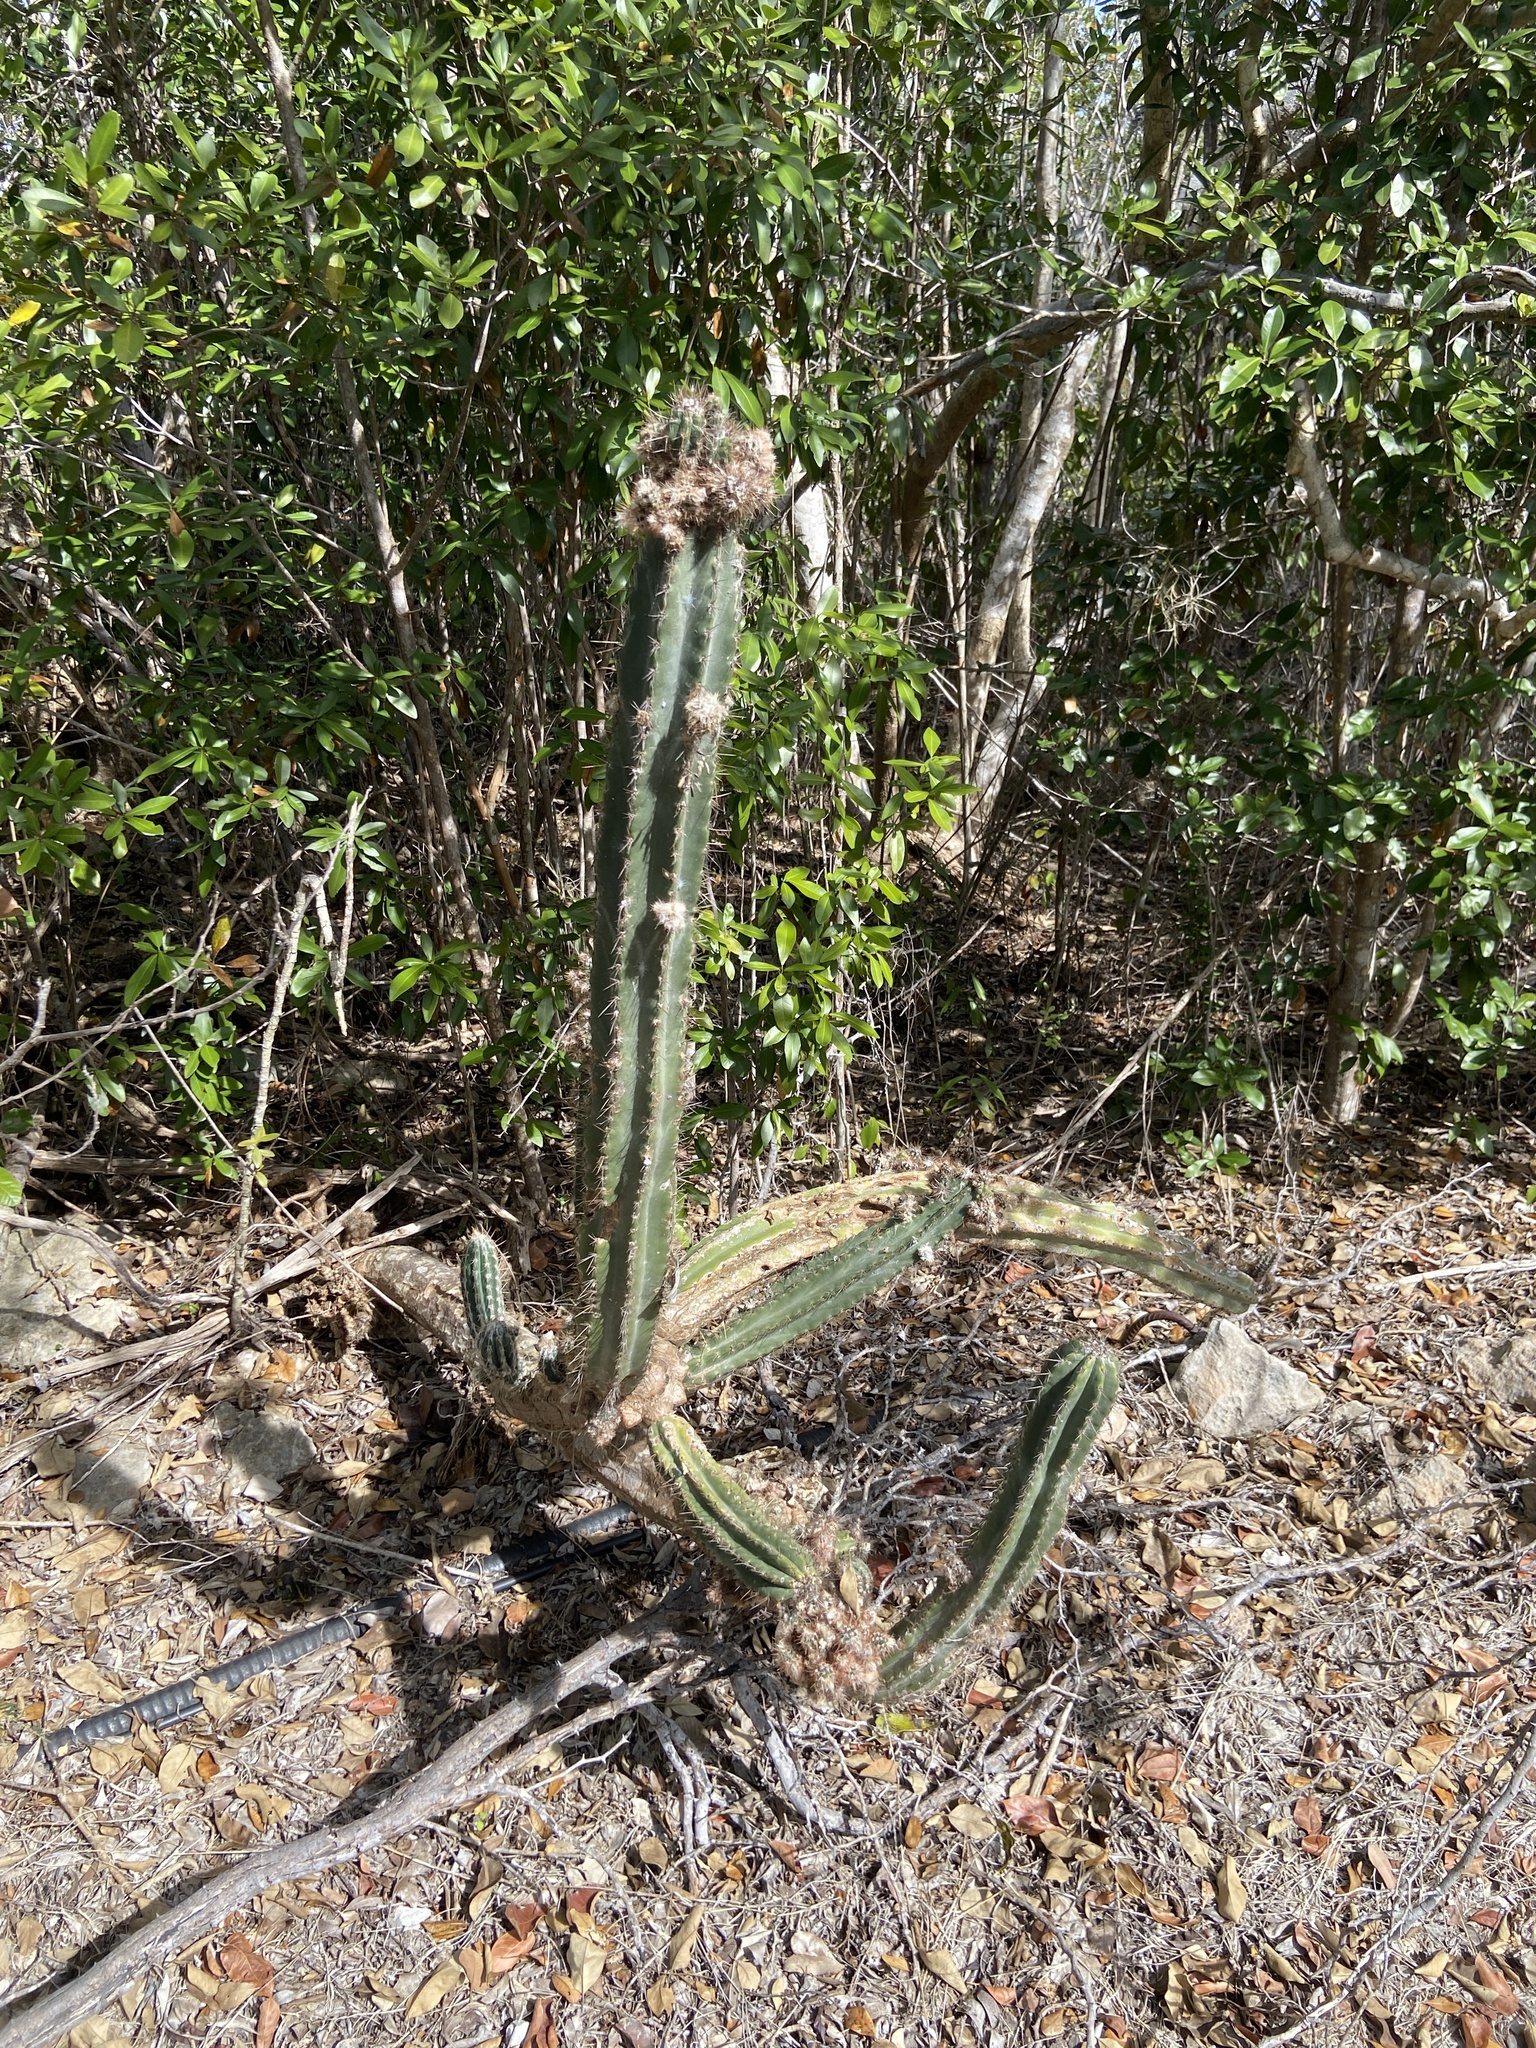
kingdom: Plantae
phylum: Tracheophyta
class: Magnoliopsida
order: Caryophyllales
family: Cactaceae
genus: Pilosocereus
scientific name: Pilosocereus armatus
